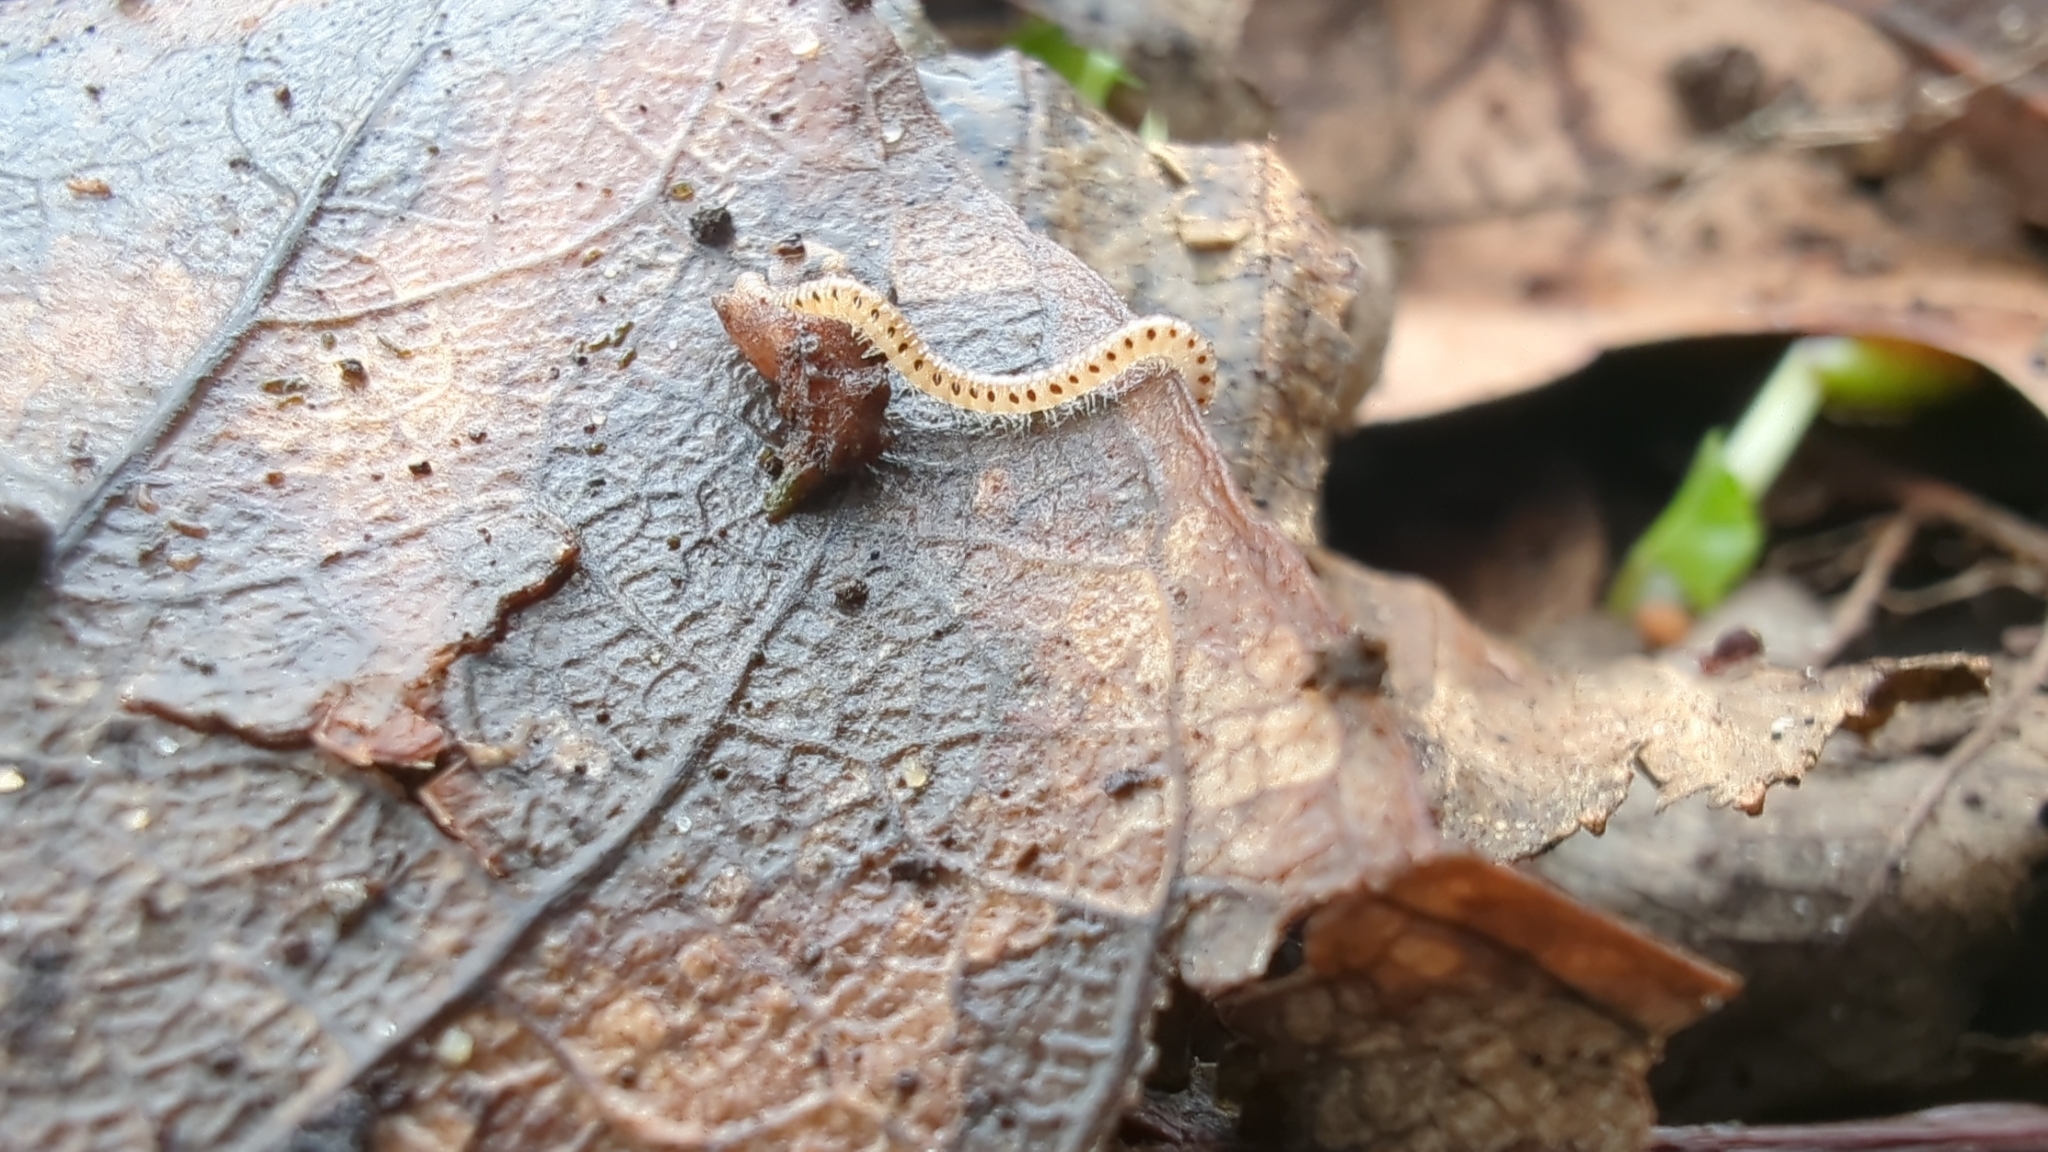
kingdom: Animalia
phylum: Arthropoda
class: Diplopoda
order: Julida
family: Blaniulidae
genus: Blaniulus
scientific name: Blaniulus guttulatus
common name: Spotted snake millipede
